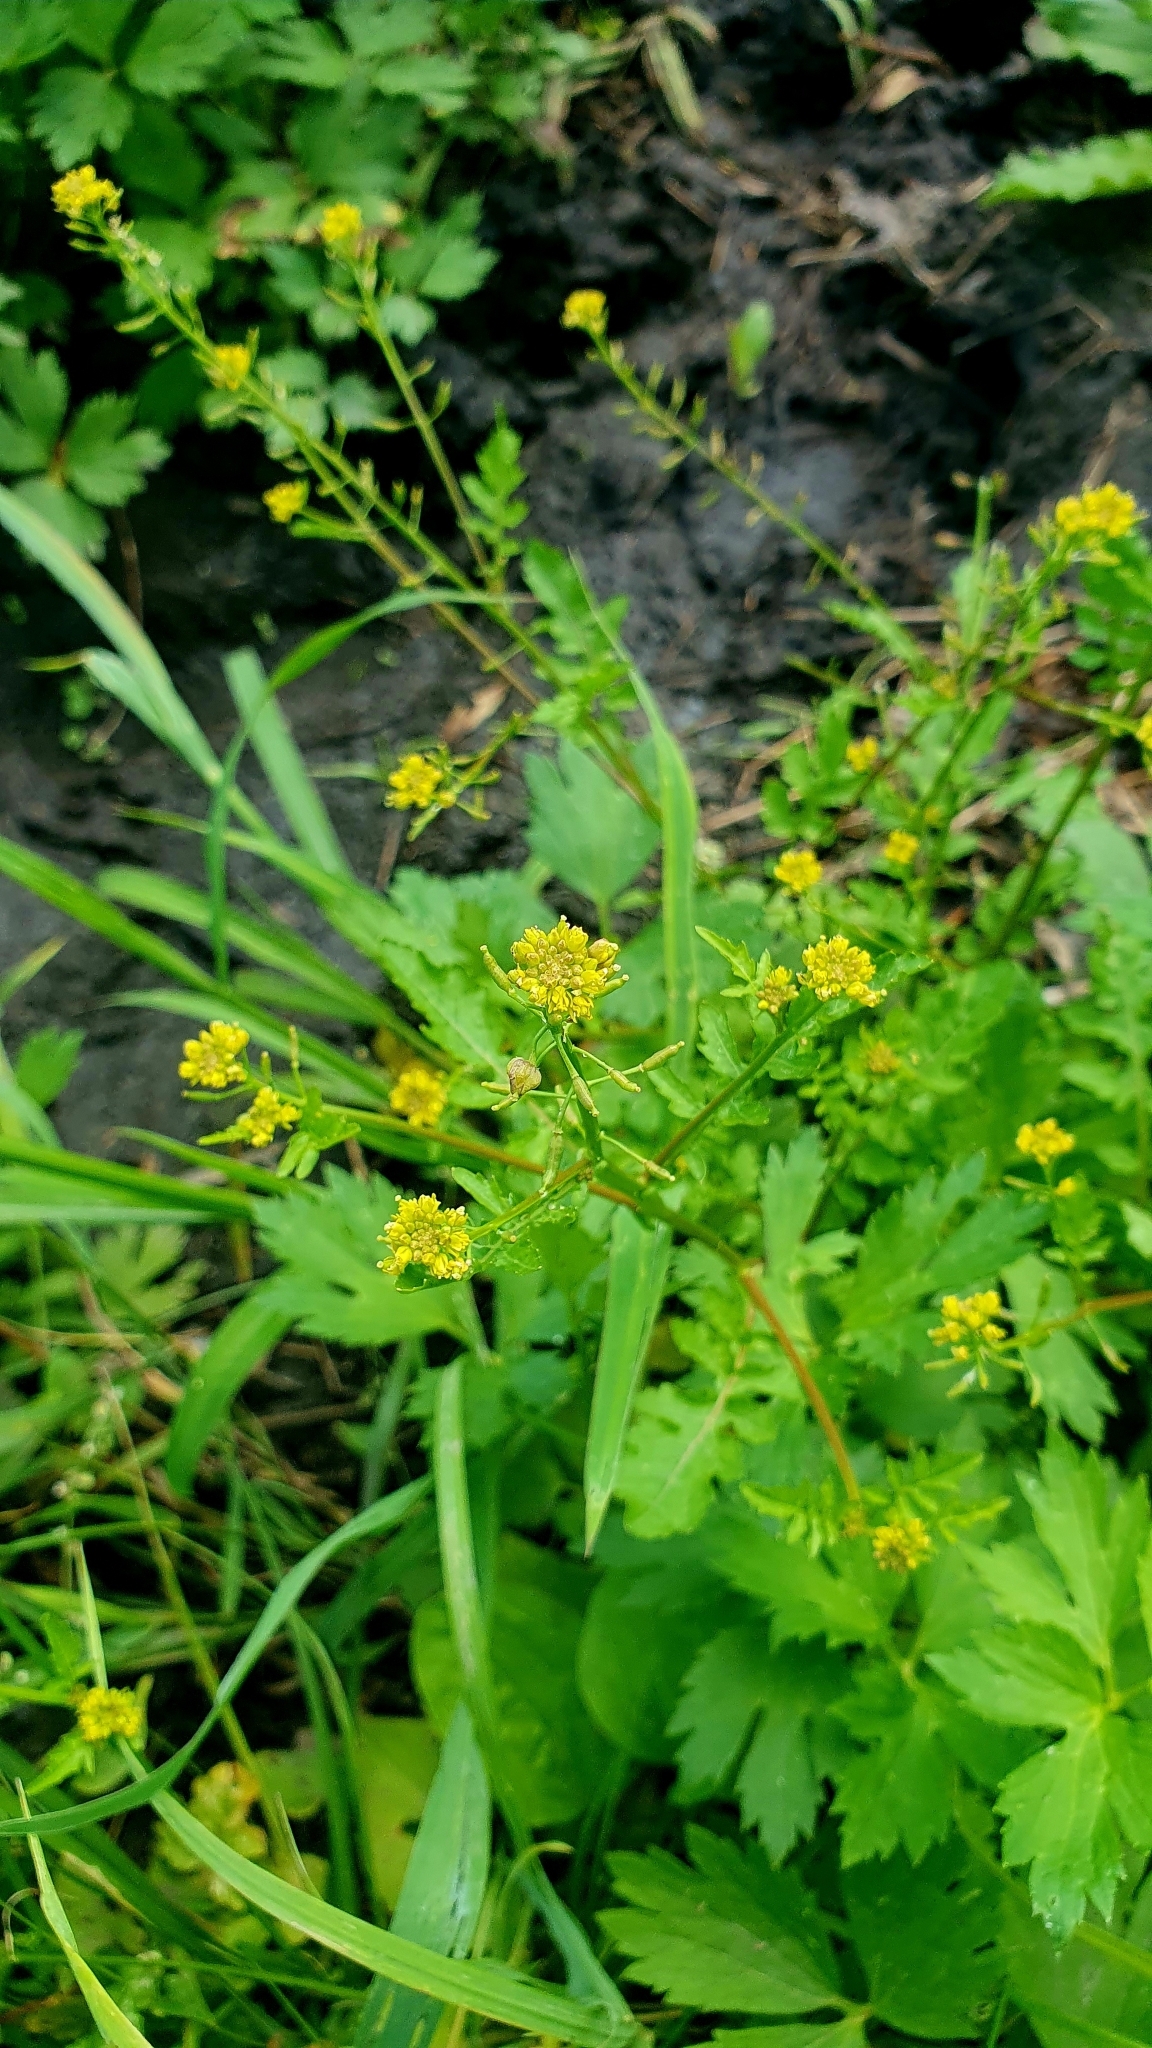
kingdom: Plantae
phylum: Tracheophyta
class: Magnoliopsida
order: Brassicales
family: Brassicaceae
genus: Rorippa
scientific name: Rorippa palustris
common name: Marsh yellow-cress
